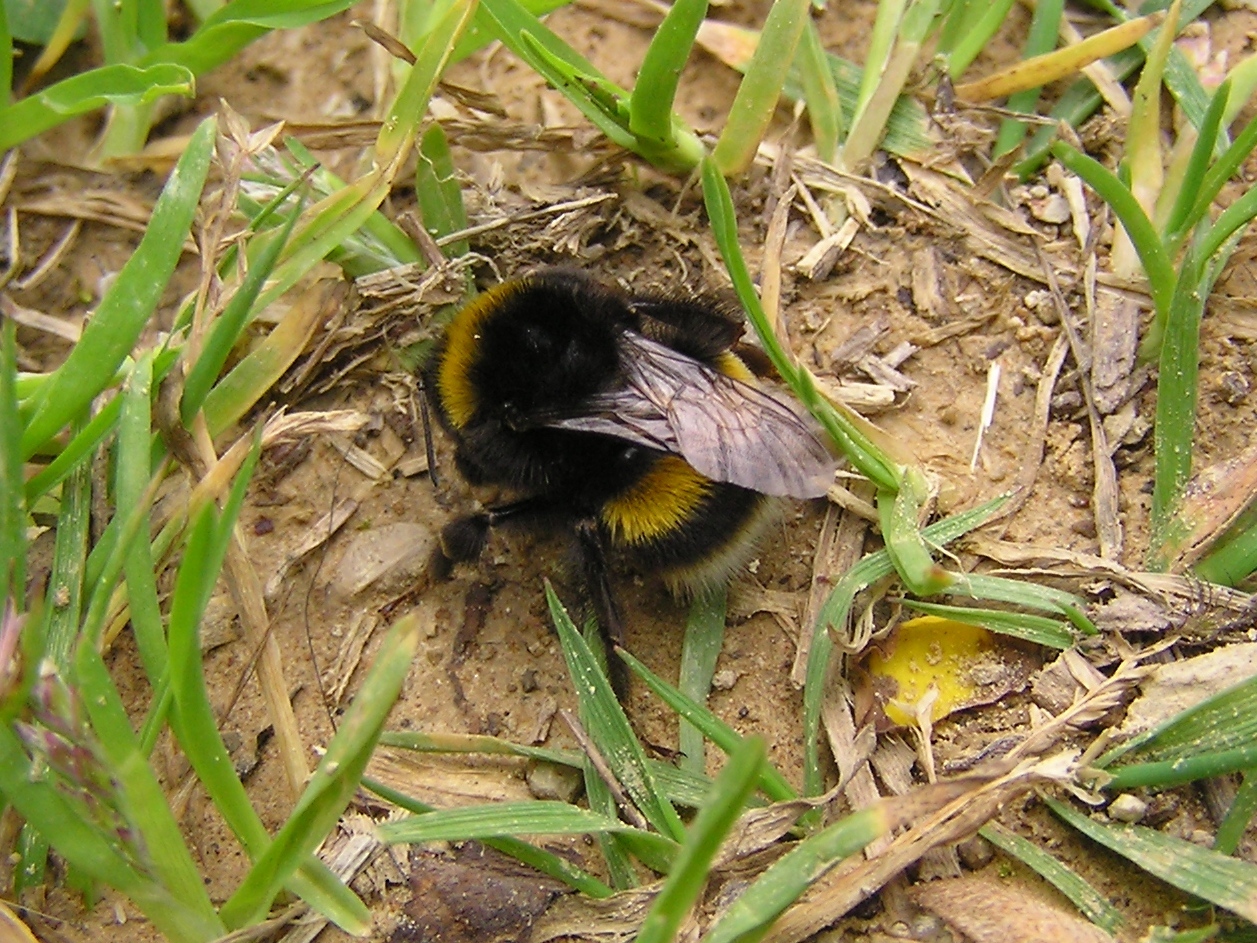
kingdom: Animalia
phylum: Arthropoda
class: Insecta
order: Hymenoptera
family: Apidae
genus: Bombus
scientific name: Bombus terrestris
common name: Buff-tailed bumblebee
